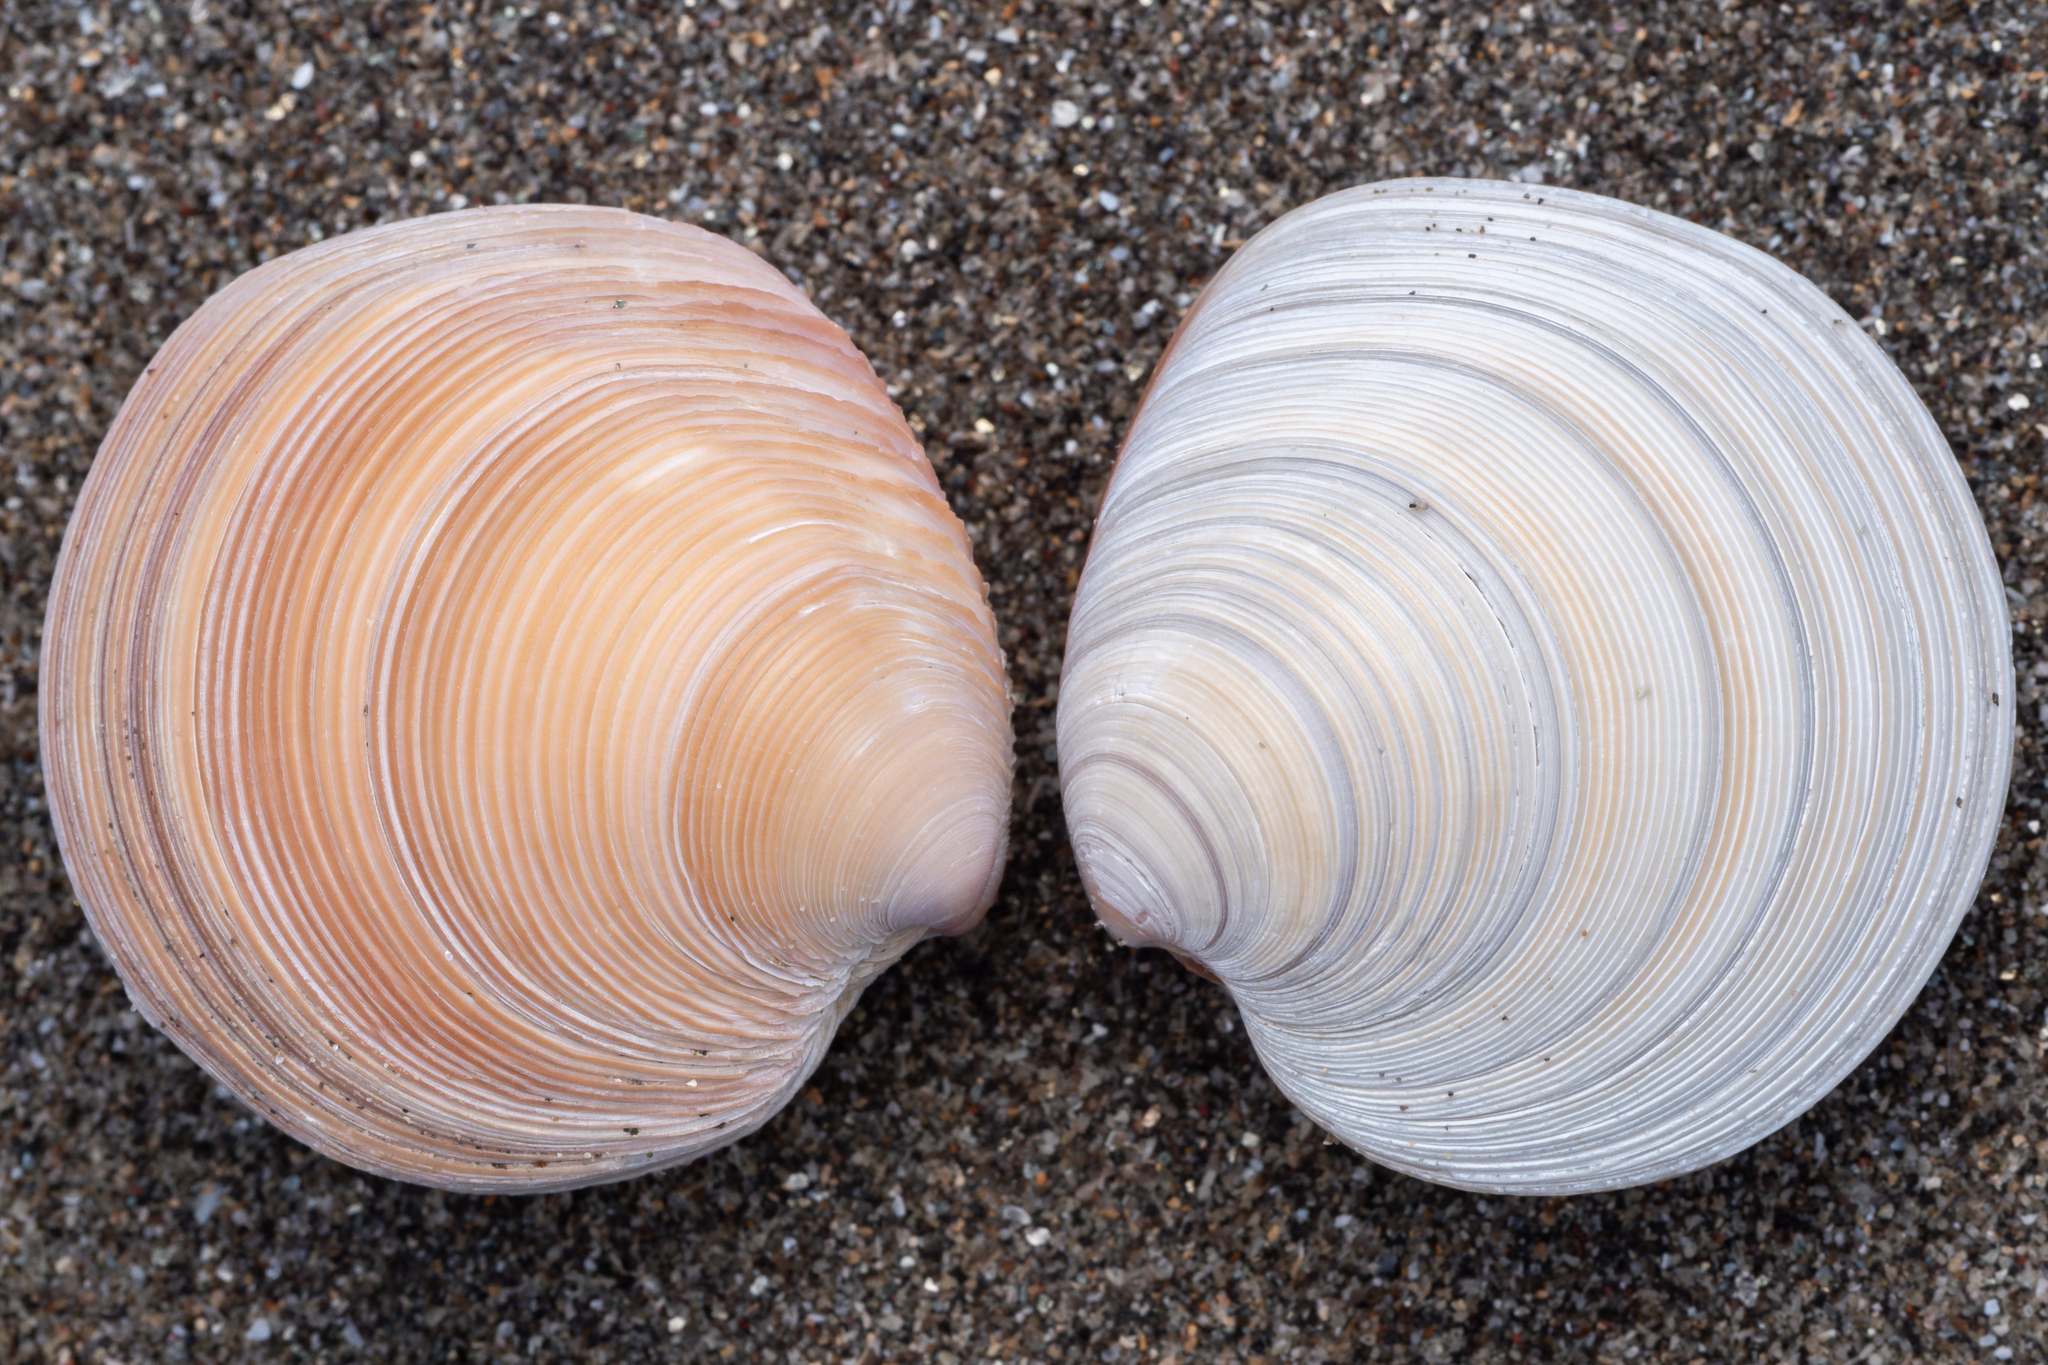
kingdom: Animalia
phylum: Mollusca
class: Bivalvia
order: Venerida
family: Veneridae
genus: Dosinia
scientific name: Dosinia subrosea
